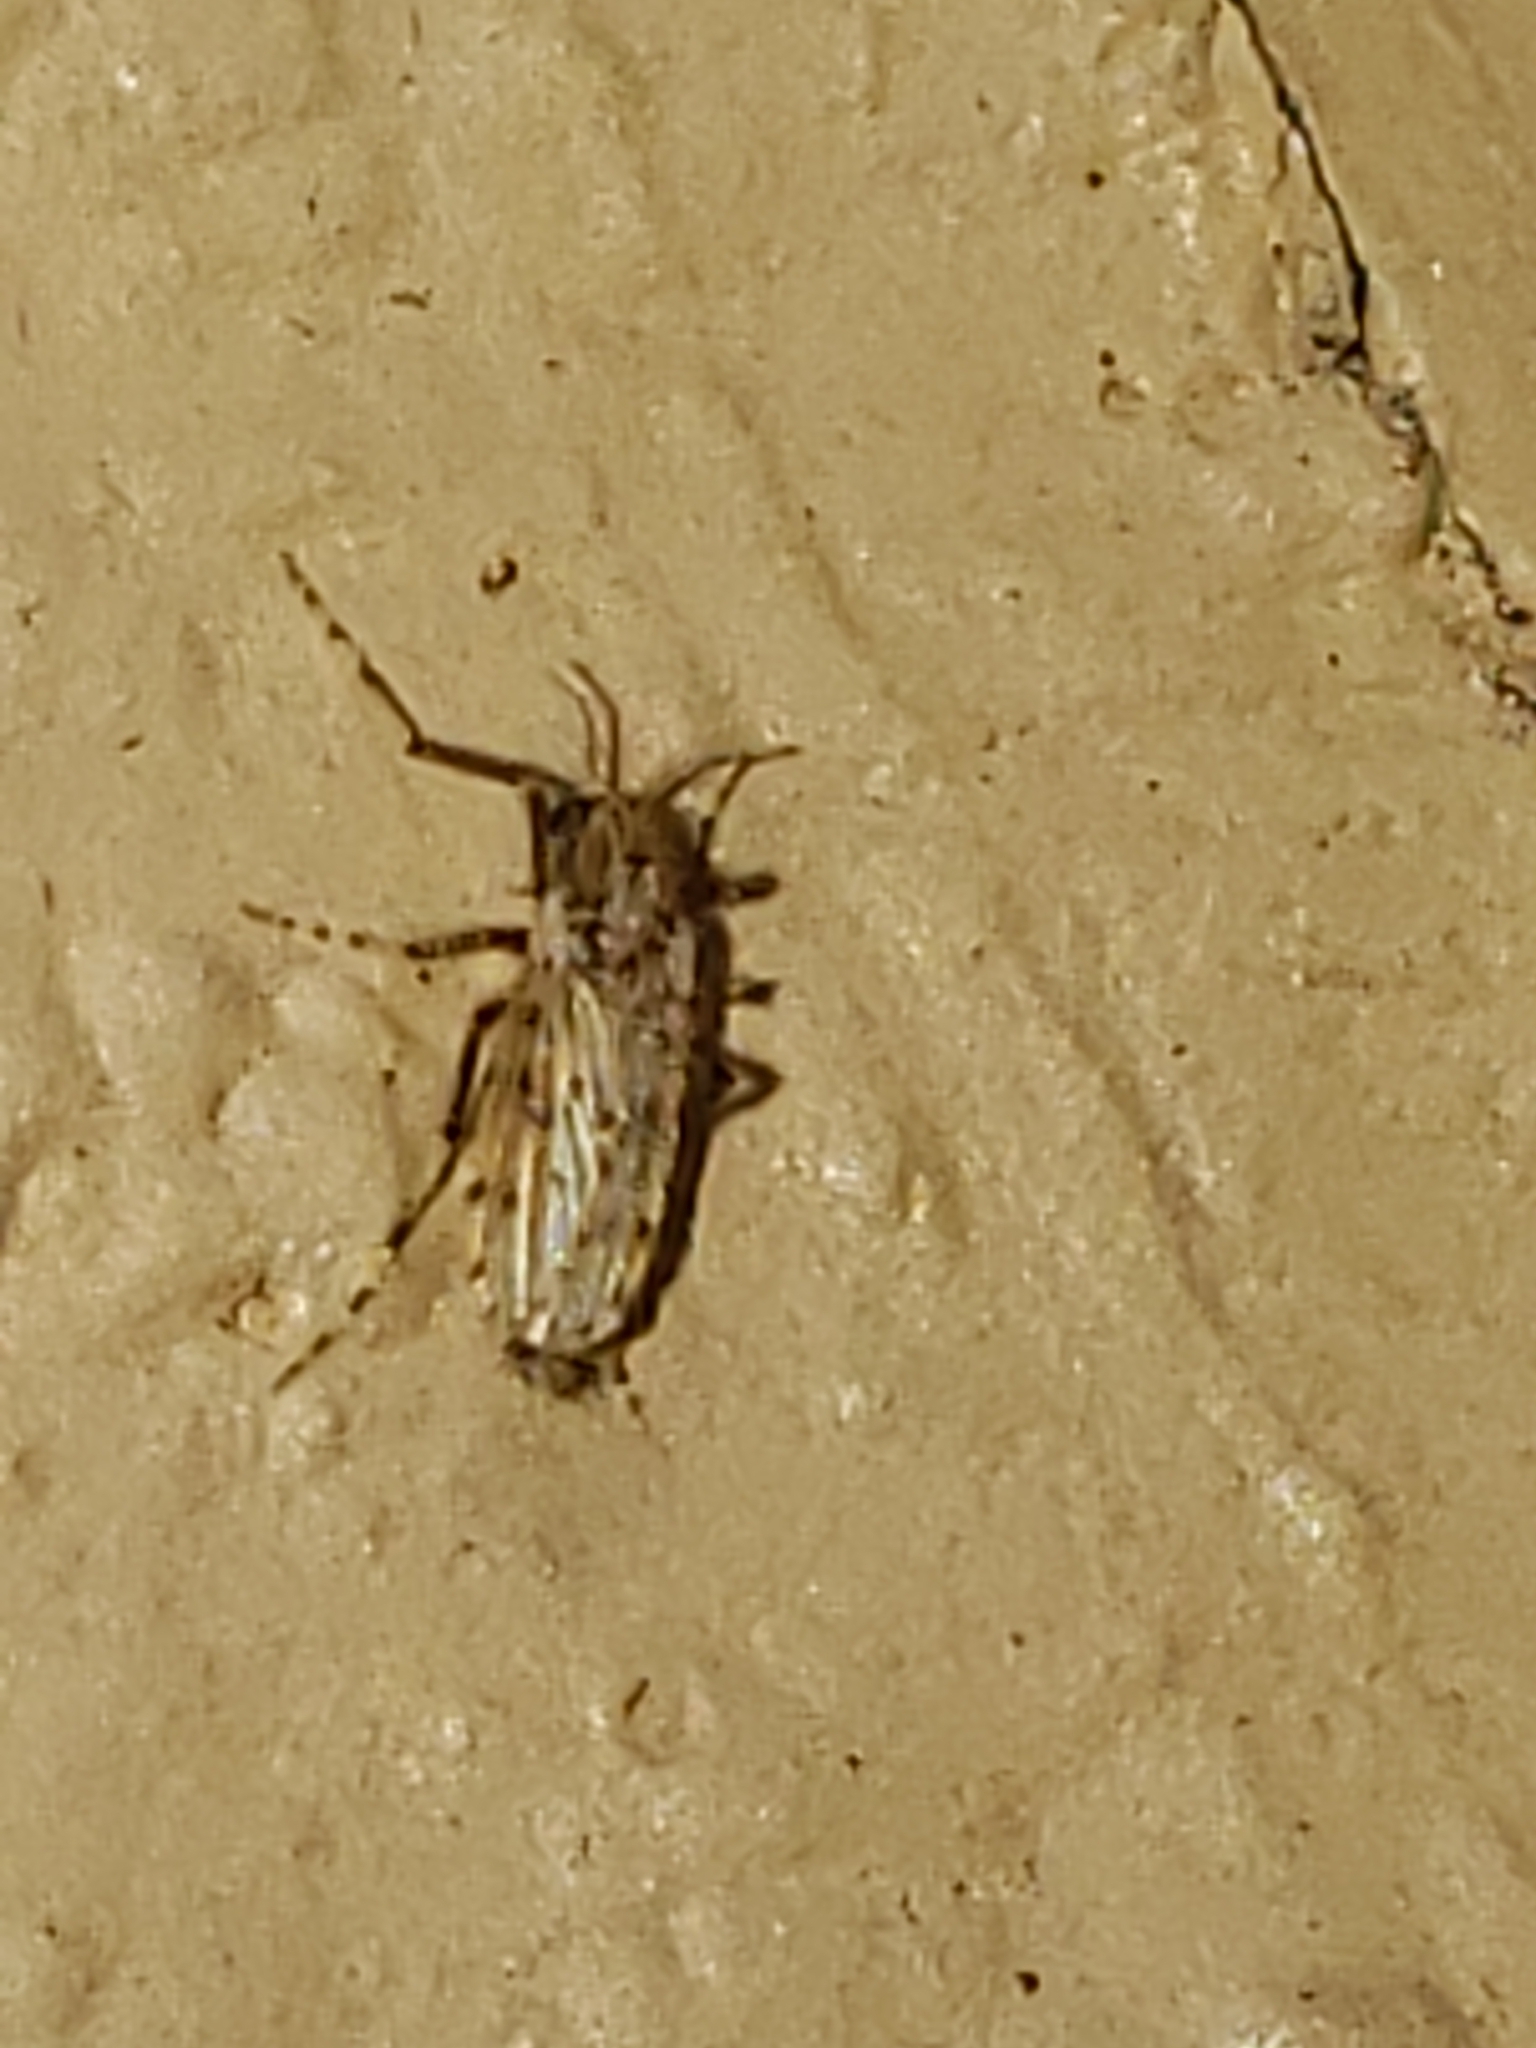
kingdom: Animalia
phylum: Arthropoda
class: Insecta
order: Diptera
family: Chaoboridae
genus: Chaoborus
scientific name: Chaoborus punctipennis
